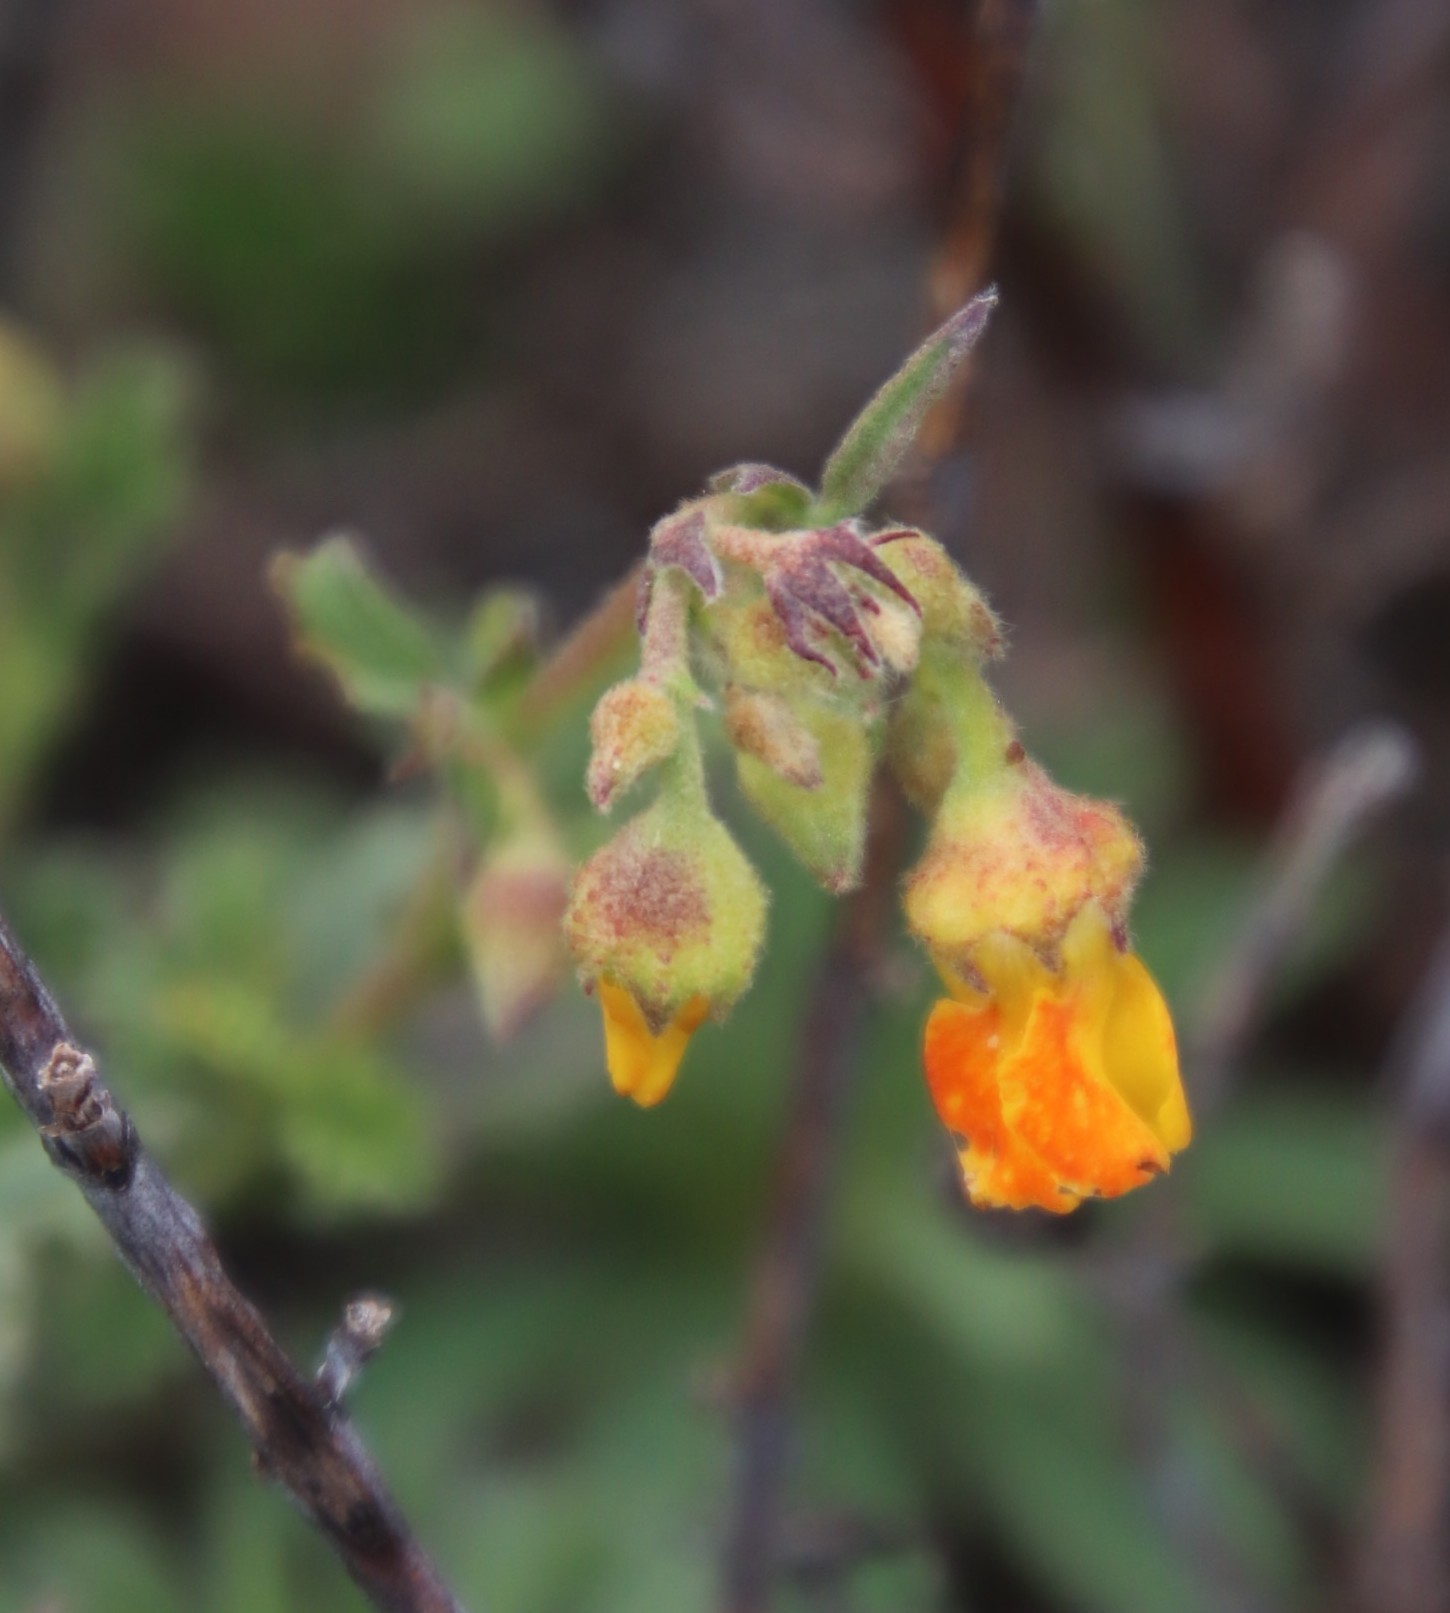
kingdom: Plantae
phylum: Tracheophyta
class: Magnoliopsida
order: Malvales
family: Malvaceae
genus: Hermannia
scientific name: Hermannia multiflora
